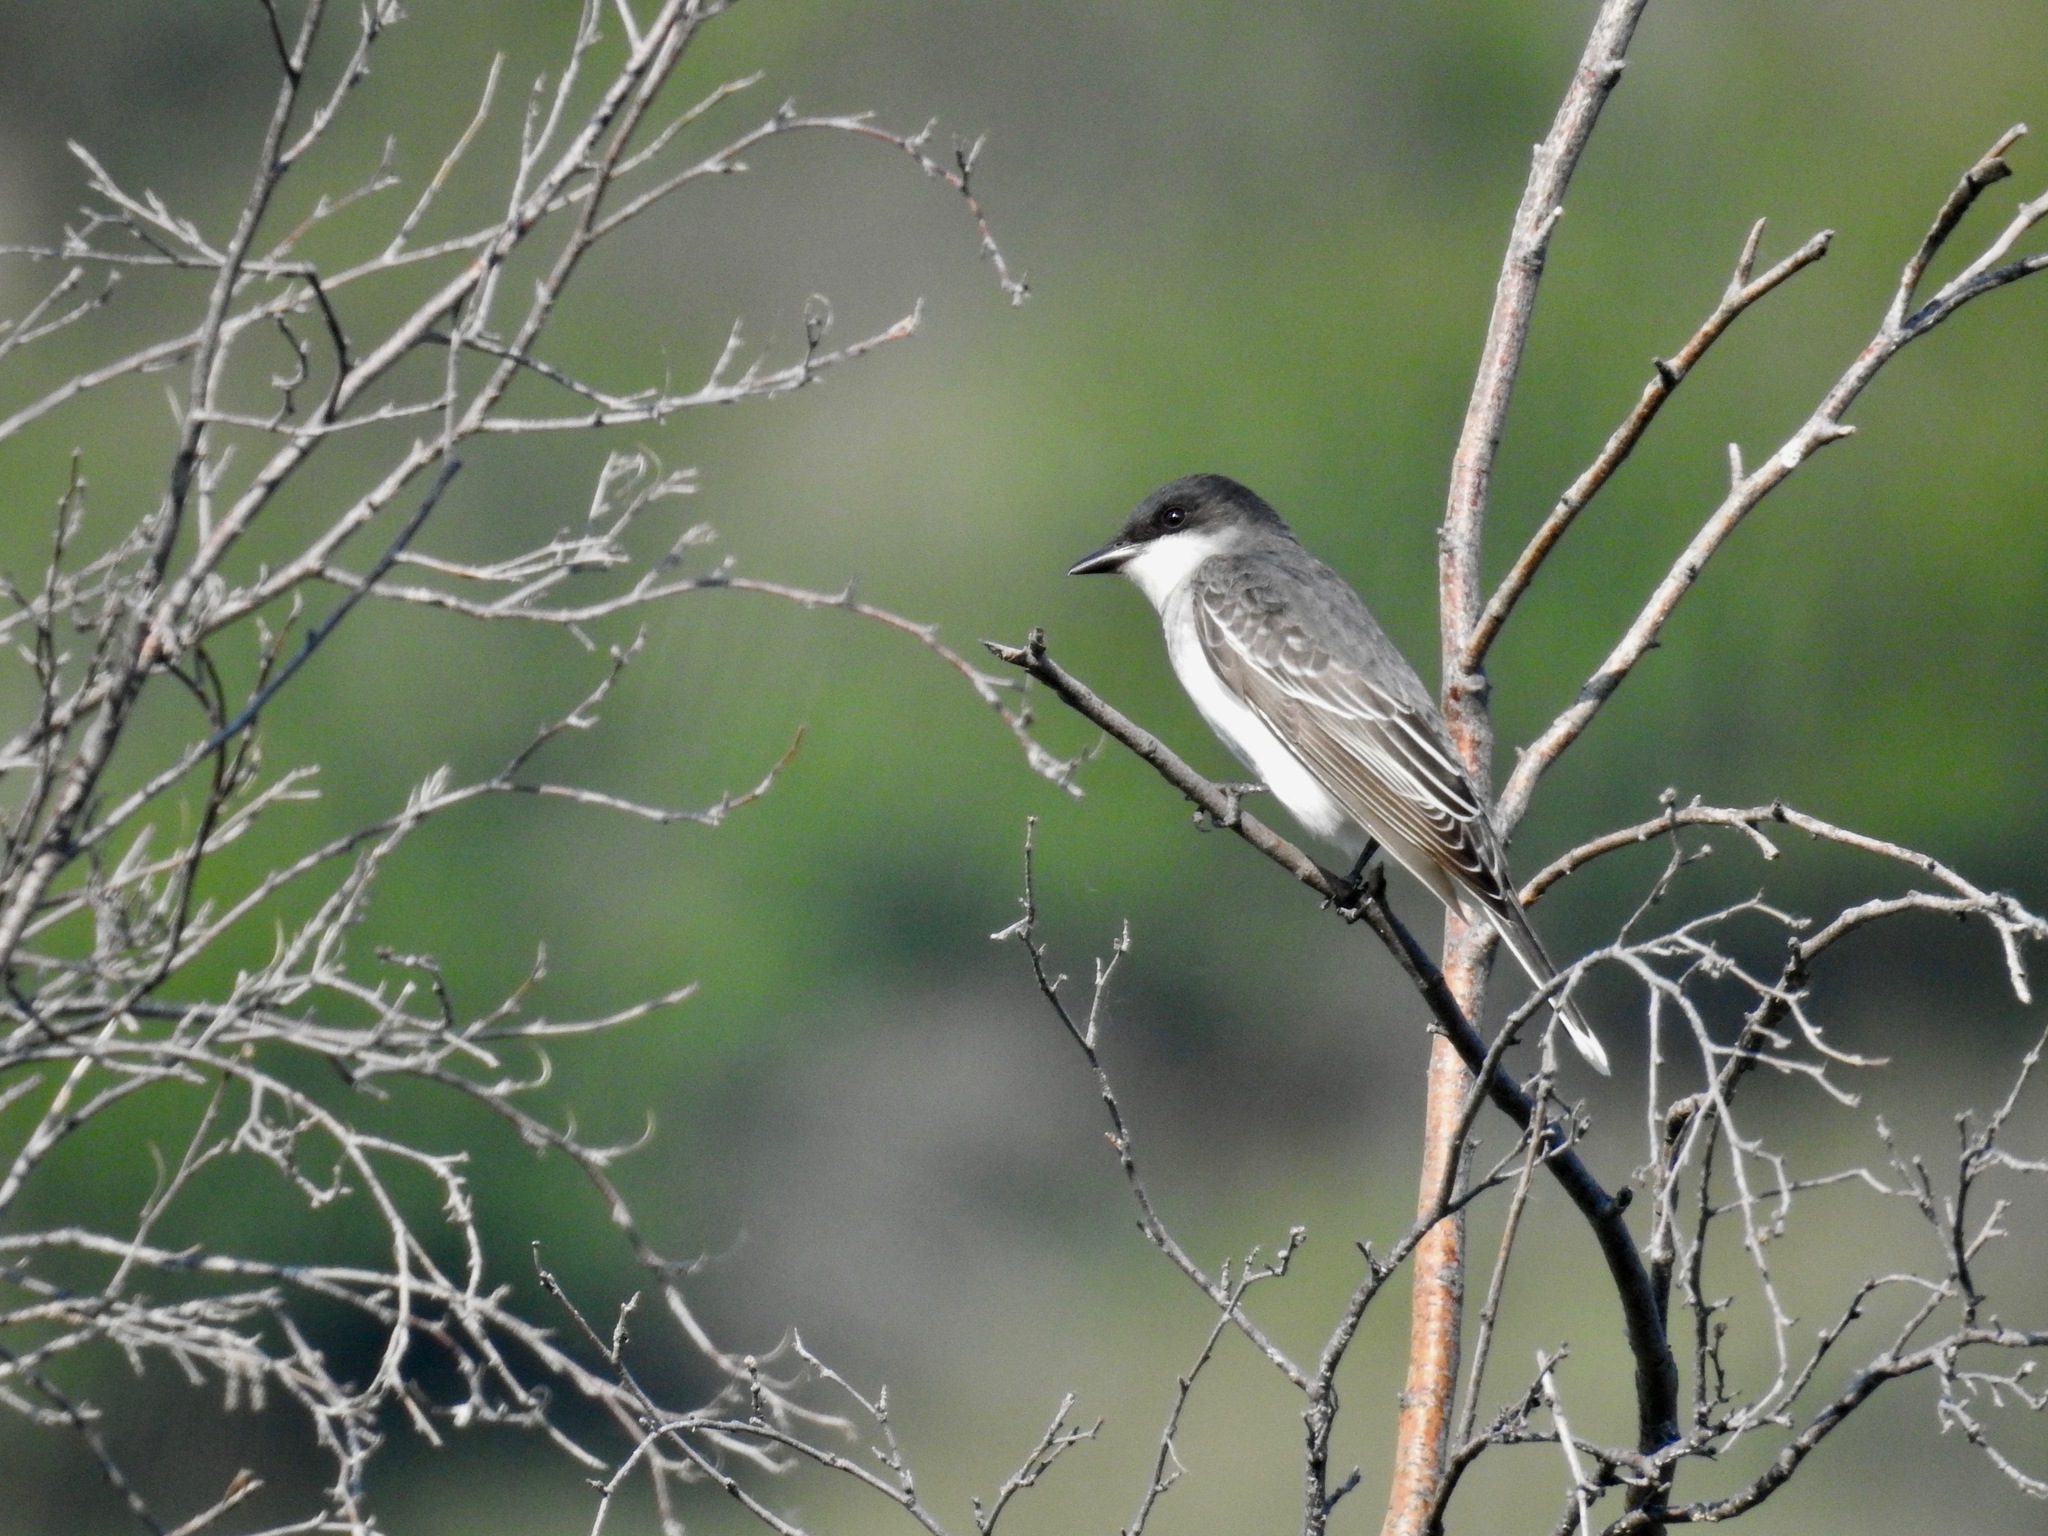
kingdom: Animalia
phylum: Chordata
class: Aves
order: Passeriformes
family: Tyrannidae
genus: Tyrannus
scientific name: Tyrannus tyrannus
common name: Eastern kingbird
